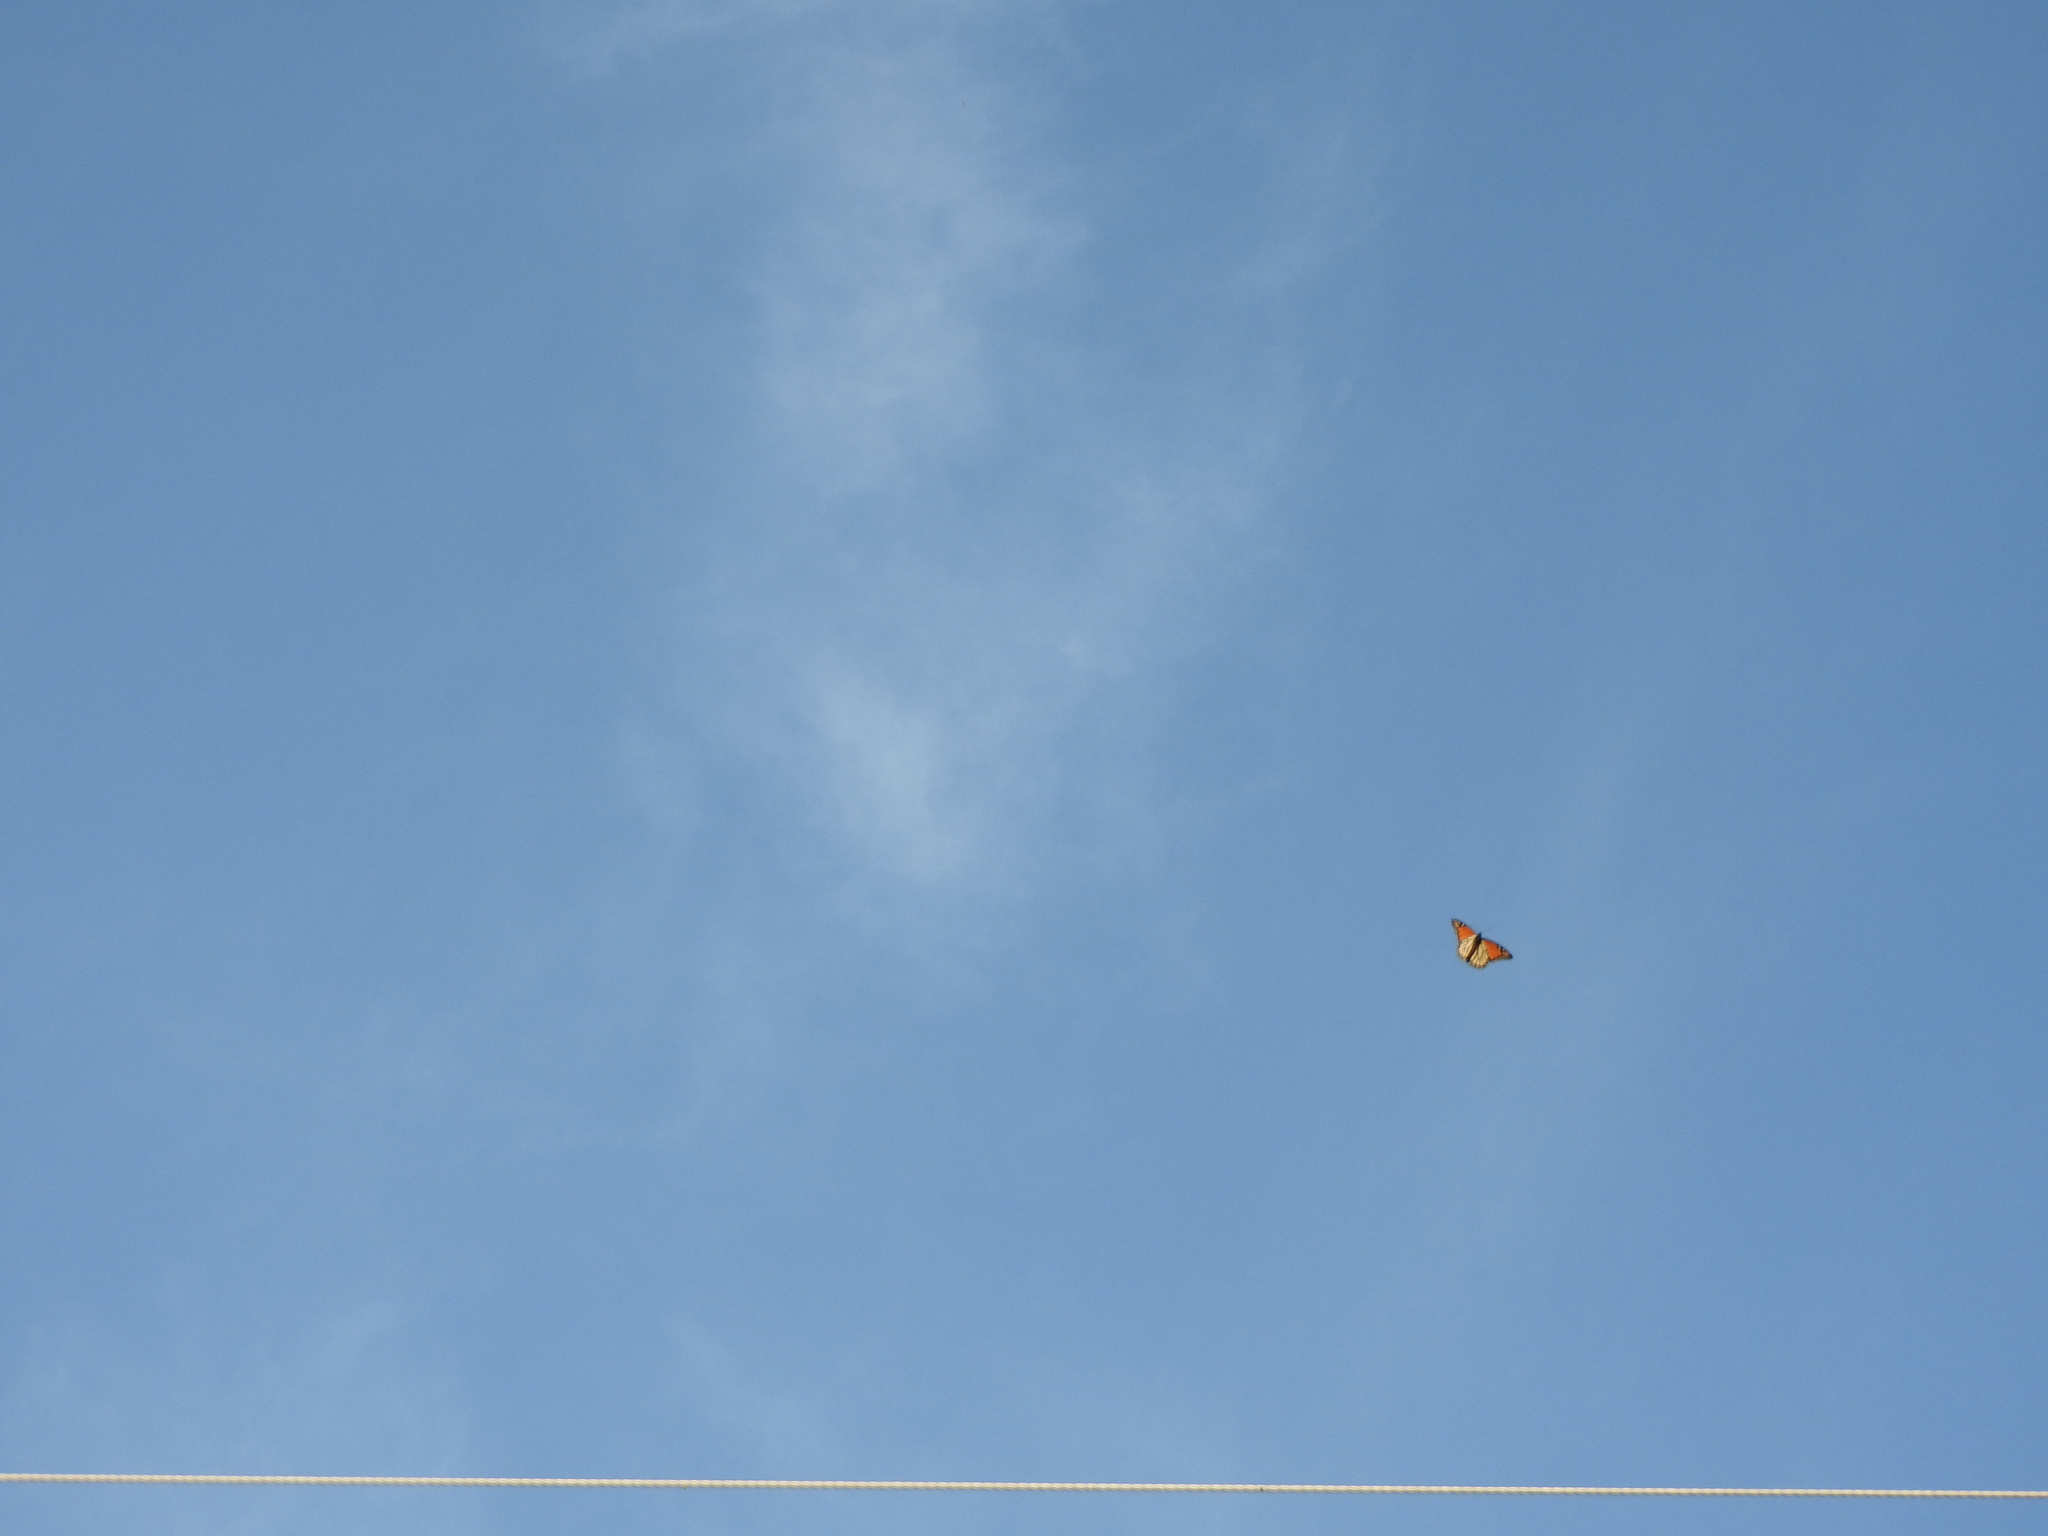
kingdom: Animalia
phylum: Arthropoda
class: Insecta
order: Lepidoptera
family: Nymphalidae
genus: Danaus
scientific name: Danaus plexippus
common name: Monarch
